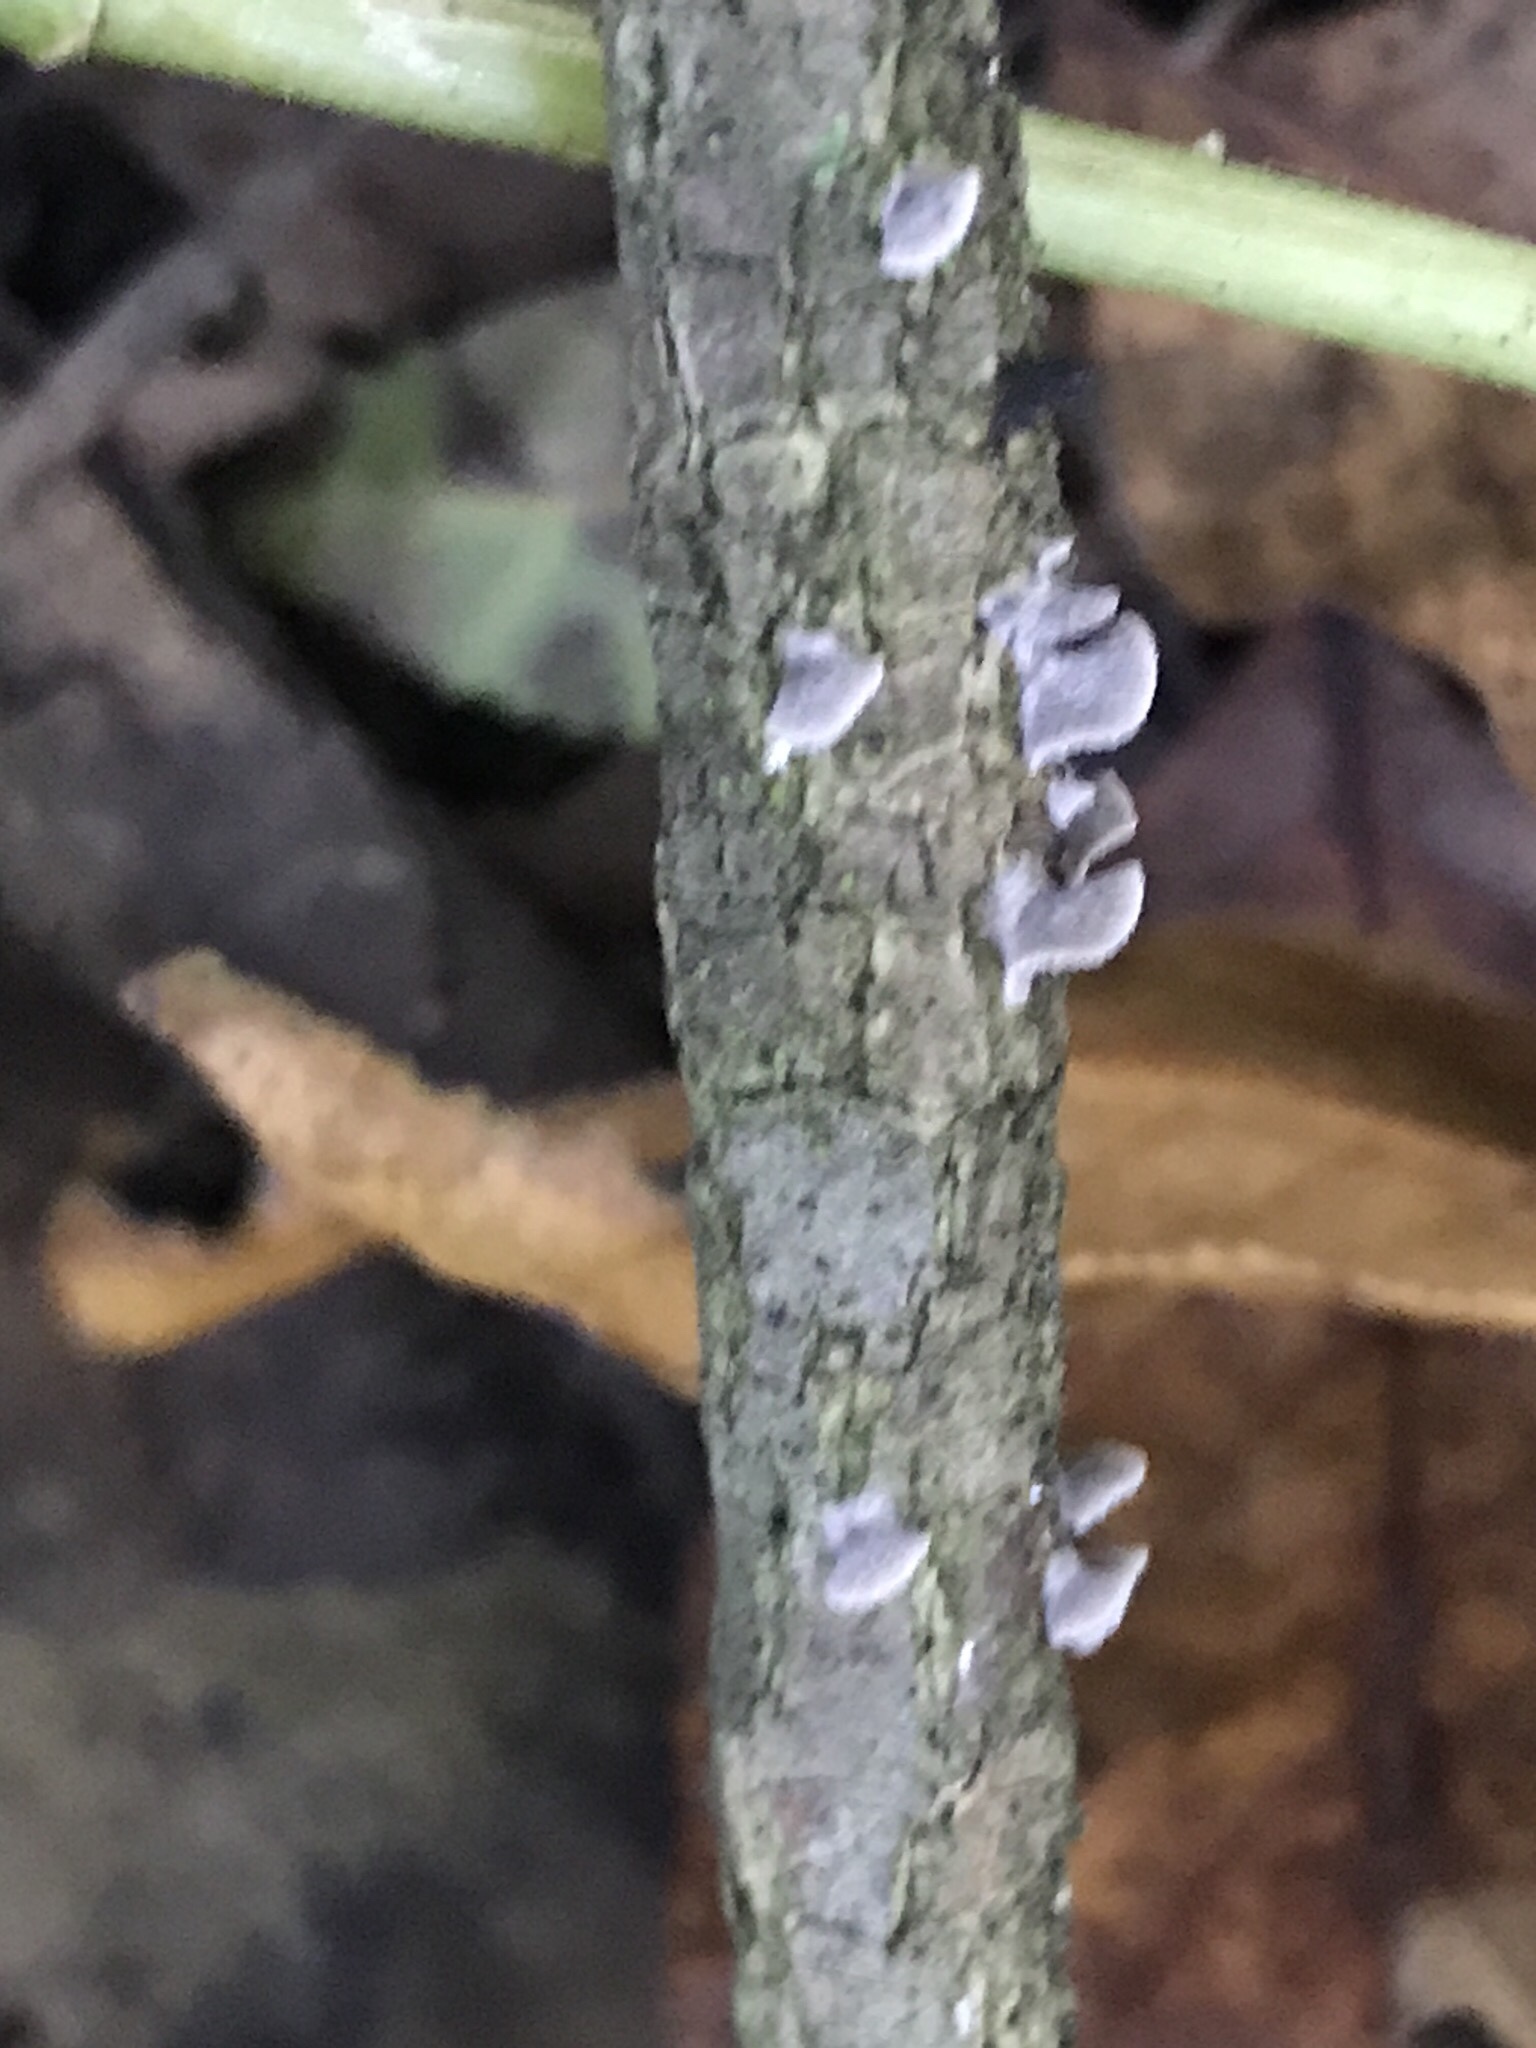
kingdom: Fungi
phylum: Basidiomycota
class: Agaricomycetes
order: Agaricales
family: Pleurotaceae
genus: Resupinatus
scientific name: Resupinatus trichotis
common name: Hairy oysterling
